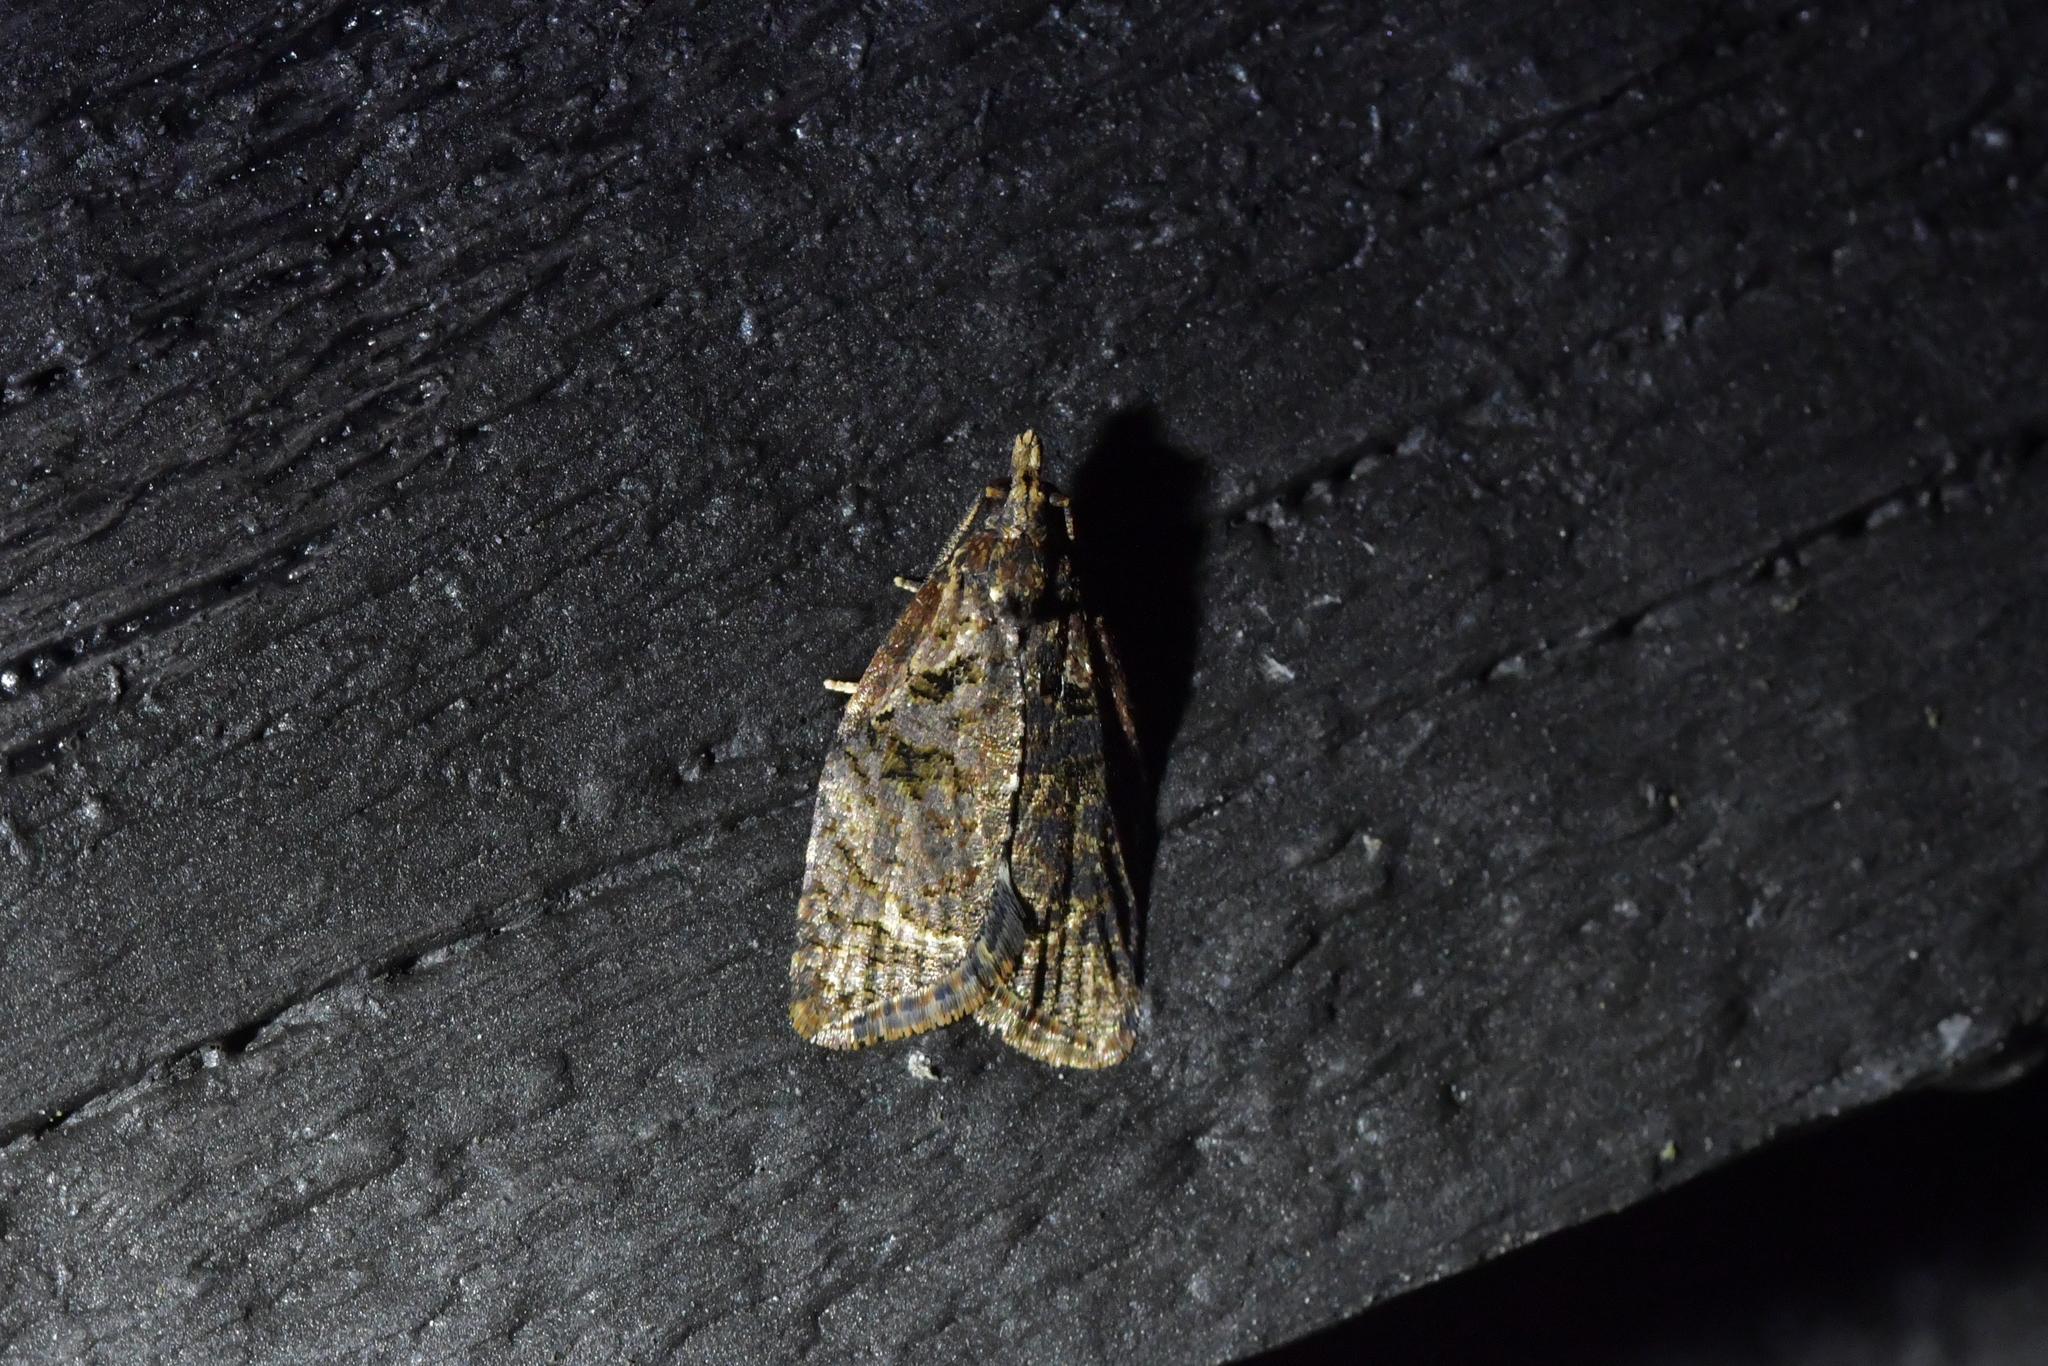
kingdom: Animalia
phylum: Arthropoda
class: Insecta
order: Lepidoptera
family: Tortricidae
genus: Capua
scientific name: Capua intractana
